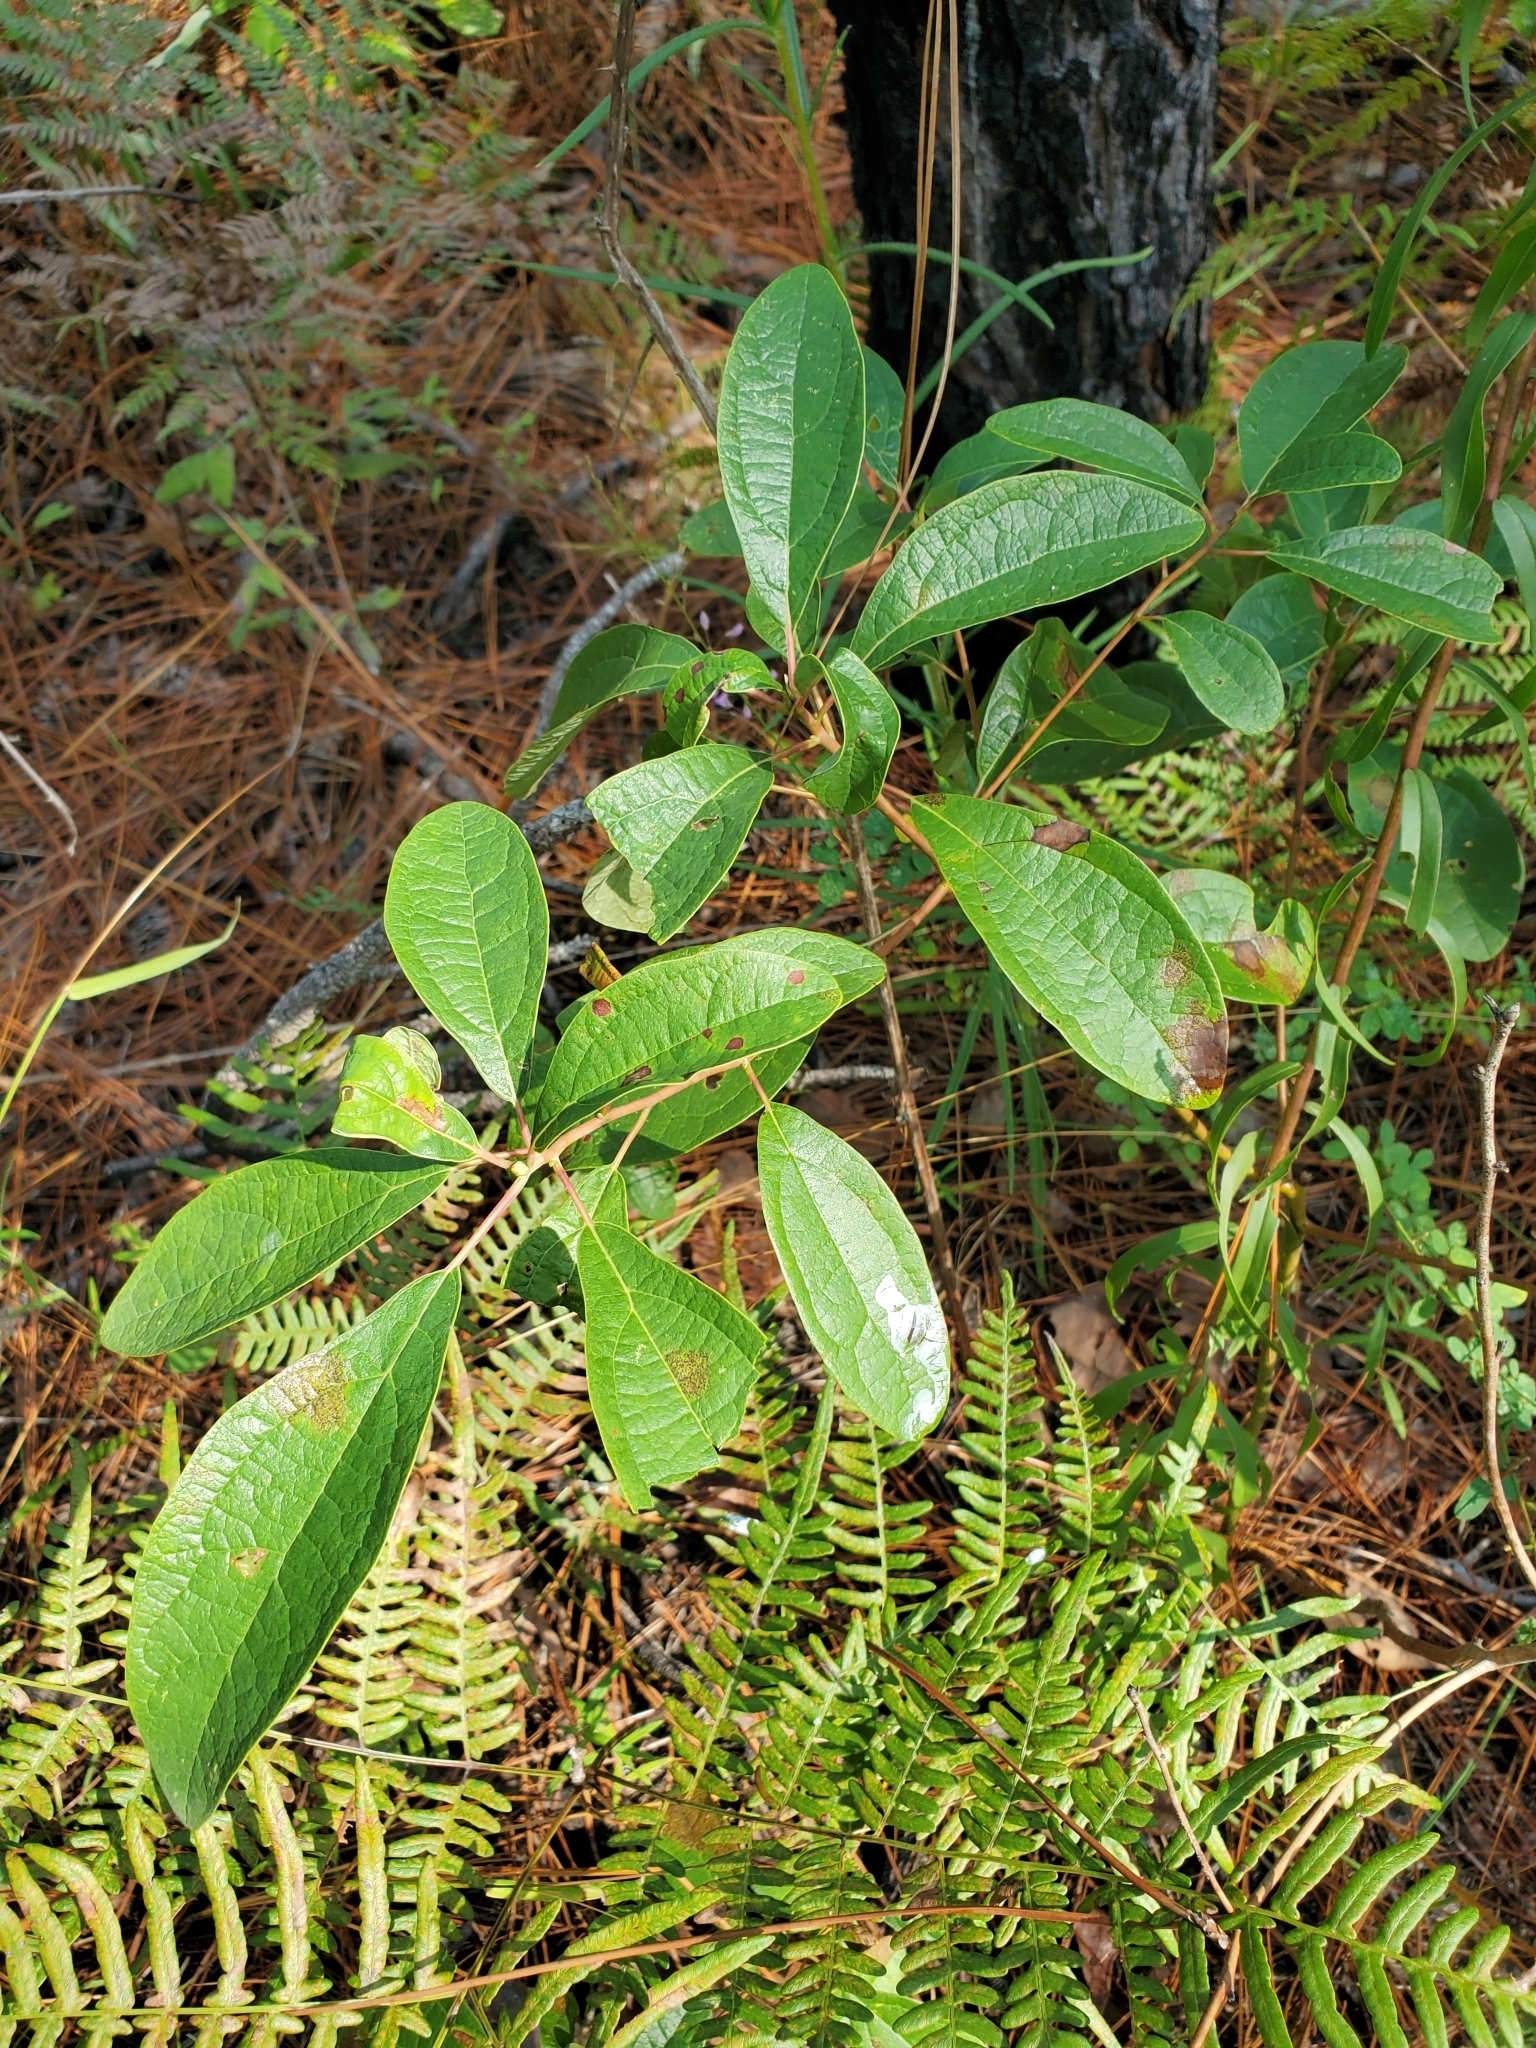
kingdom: Plantae
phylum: Tracheophyta
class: Magnoliopsida
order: Laurales
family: Lauraceae
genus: Sassafras
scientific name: Sassafras albidum
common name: Sassafras
